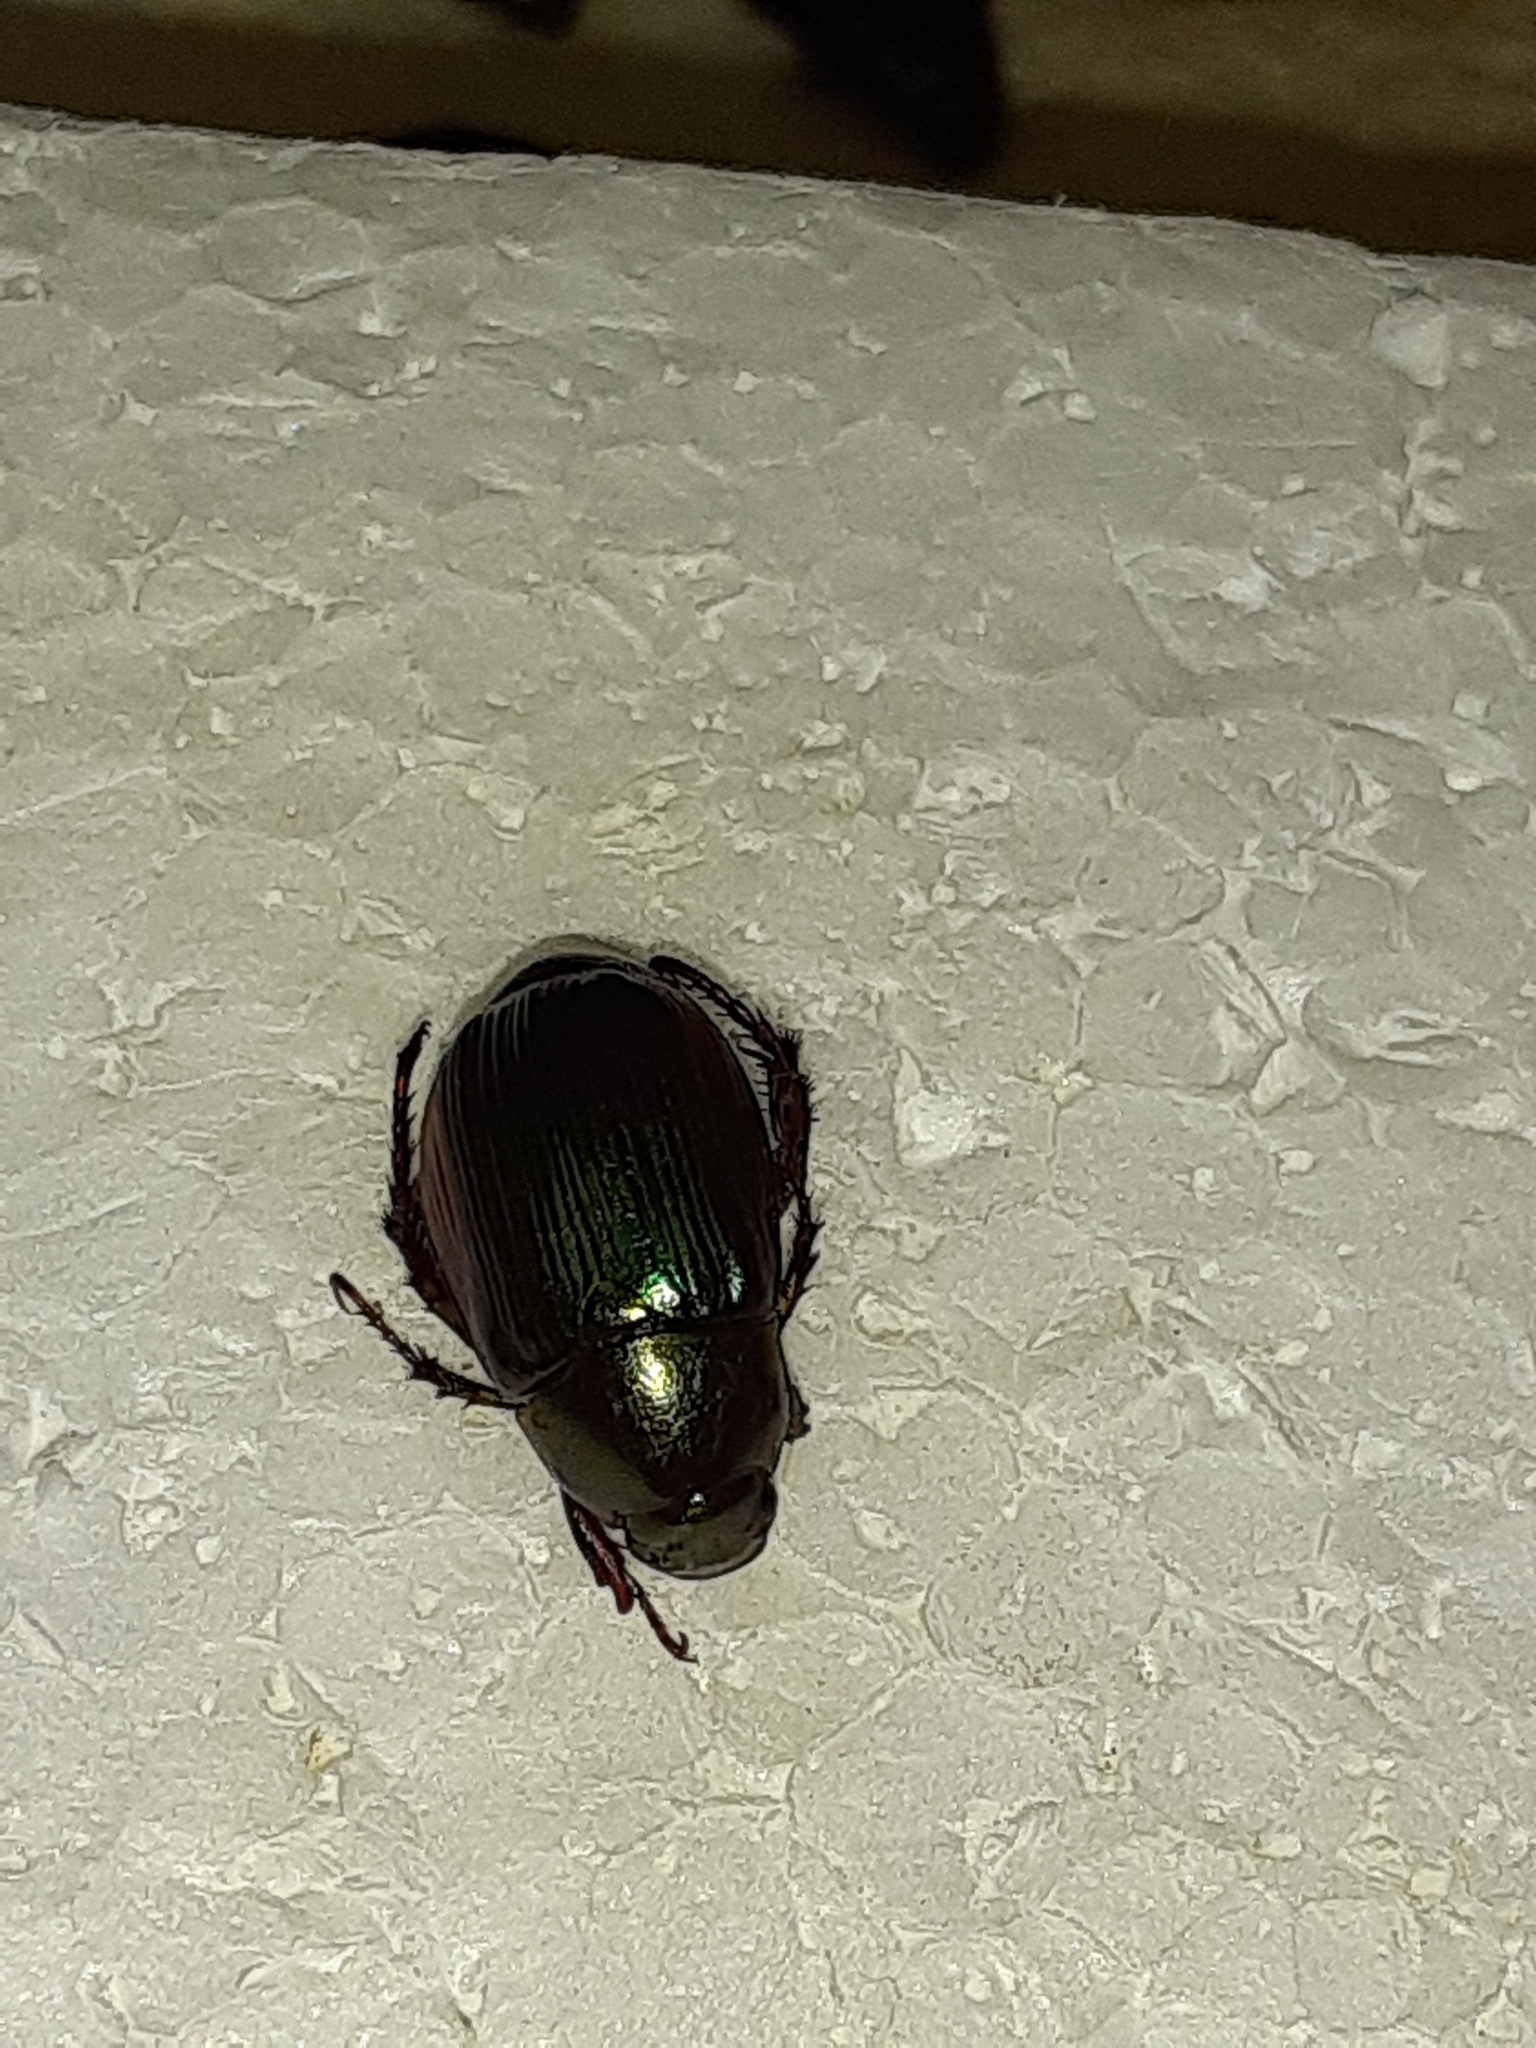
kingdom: Animalia
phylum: Arthropoda
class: Insecta
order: Coleoptera
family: Scarabaeidae
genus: Callistethus
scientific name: Callistethus marginatus
